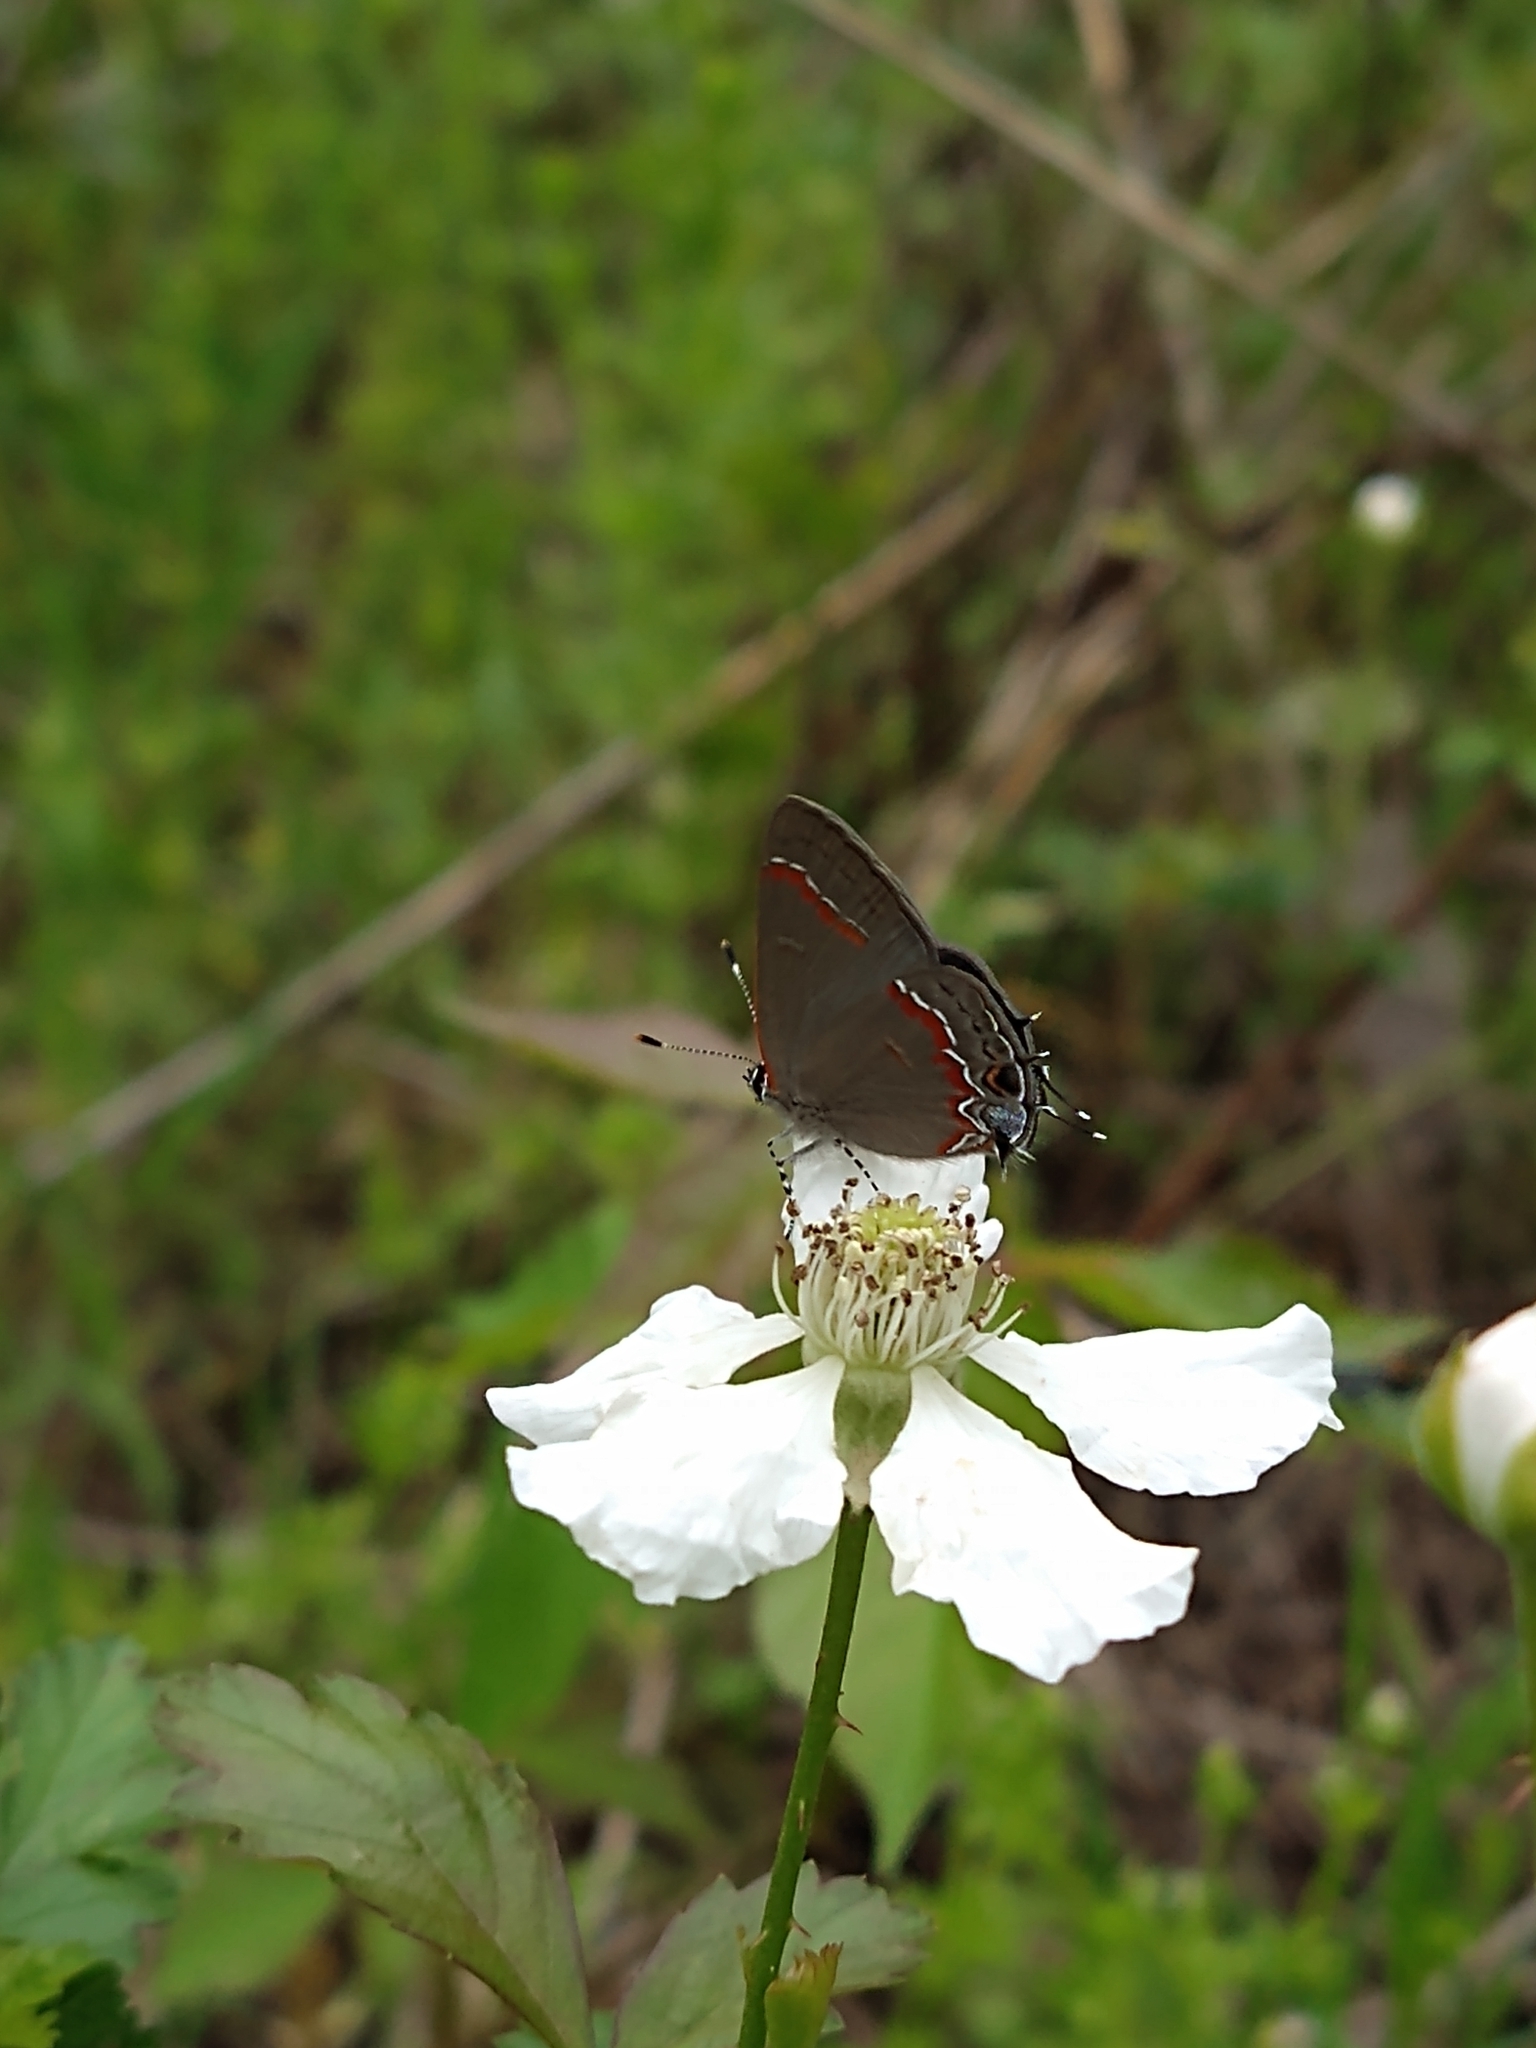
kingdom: Animalia
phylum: Arthropoda
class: Insecta
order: Lepidoptera
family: Lycaenidae
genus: Calycopis
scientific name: Calycopis cecrops
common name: Red-banded hairstreak
